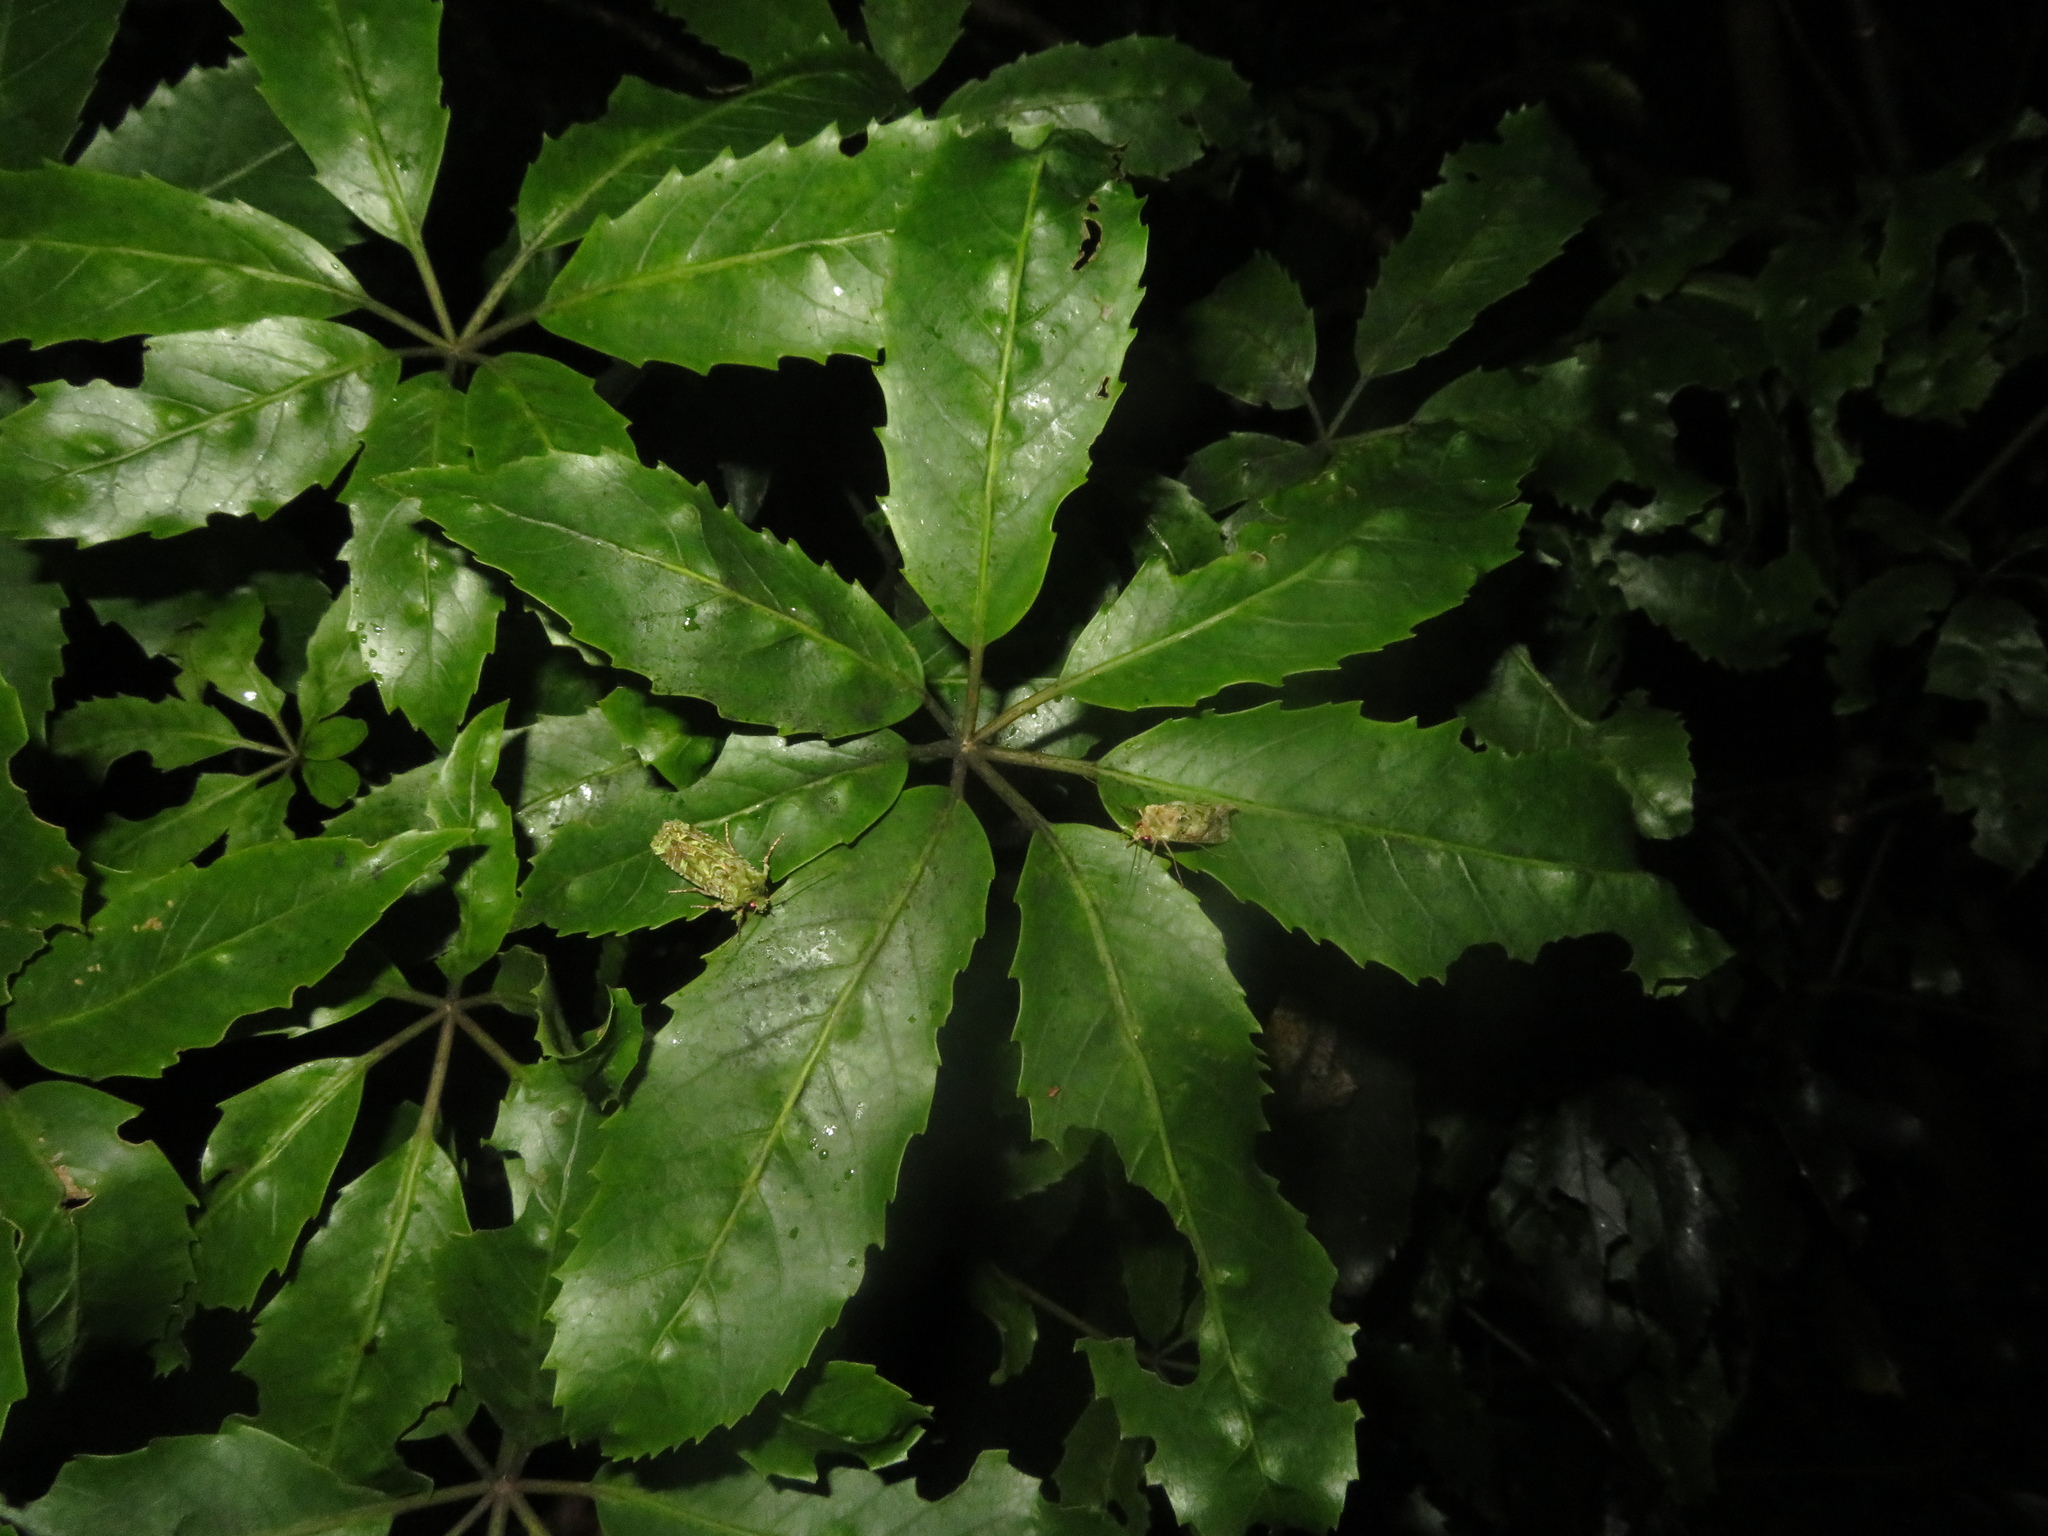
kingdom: Animalia
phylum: Arthropoda
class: Insecta
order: Lepidoptera
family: Noctuidae
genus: Feredayia
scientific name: Feredayia grammosa
